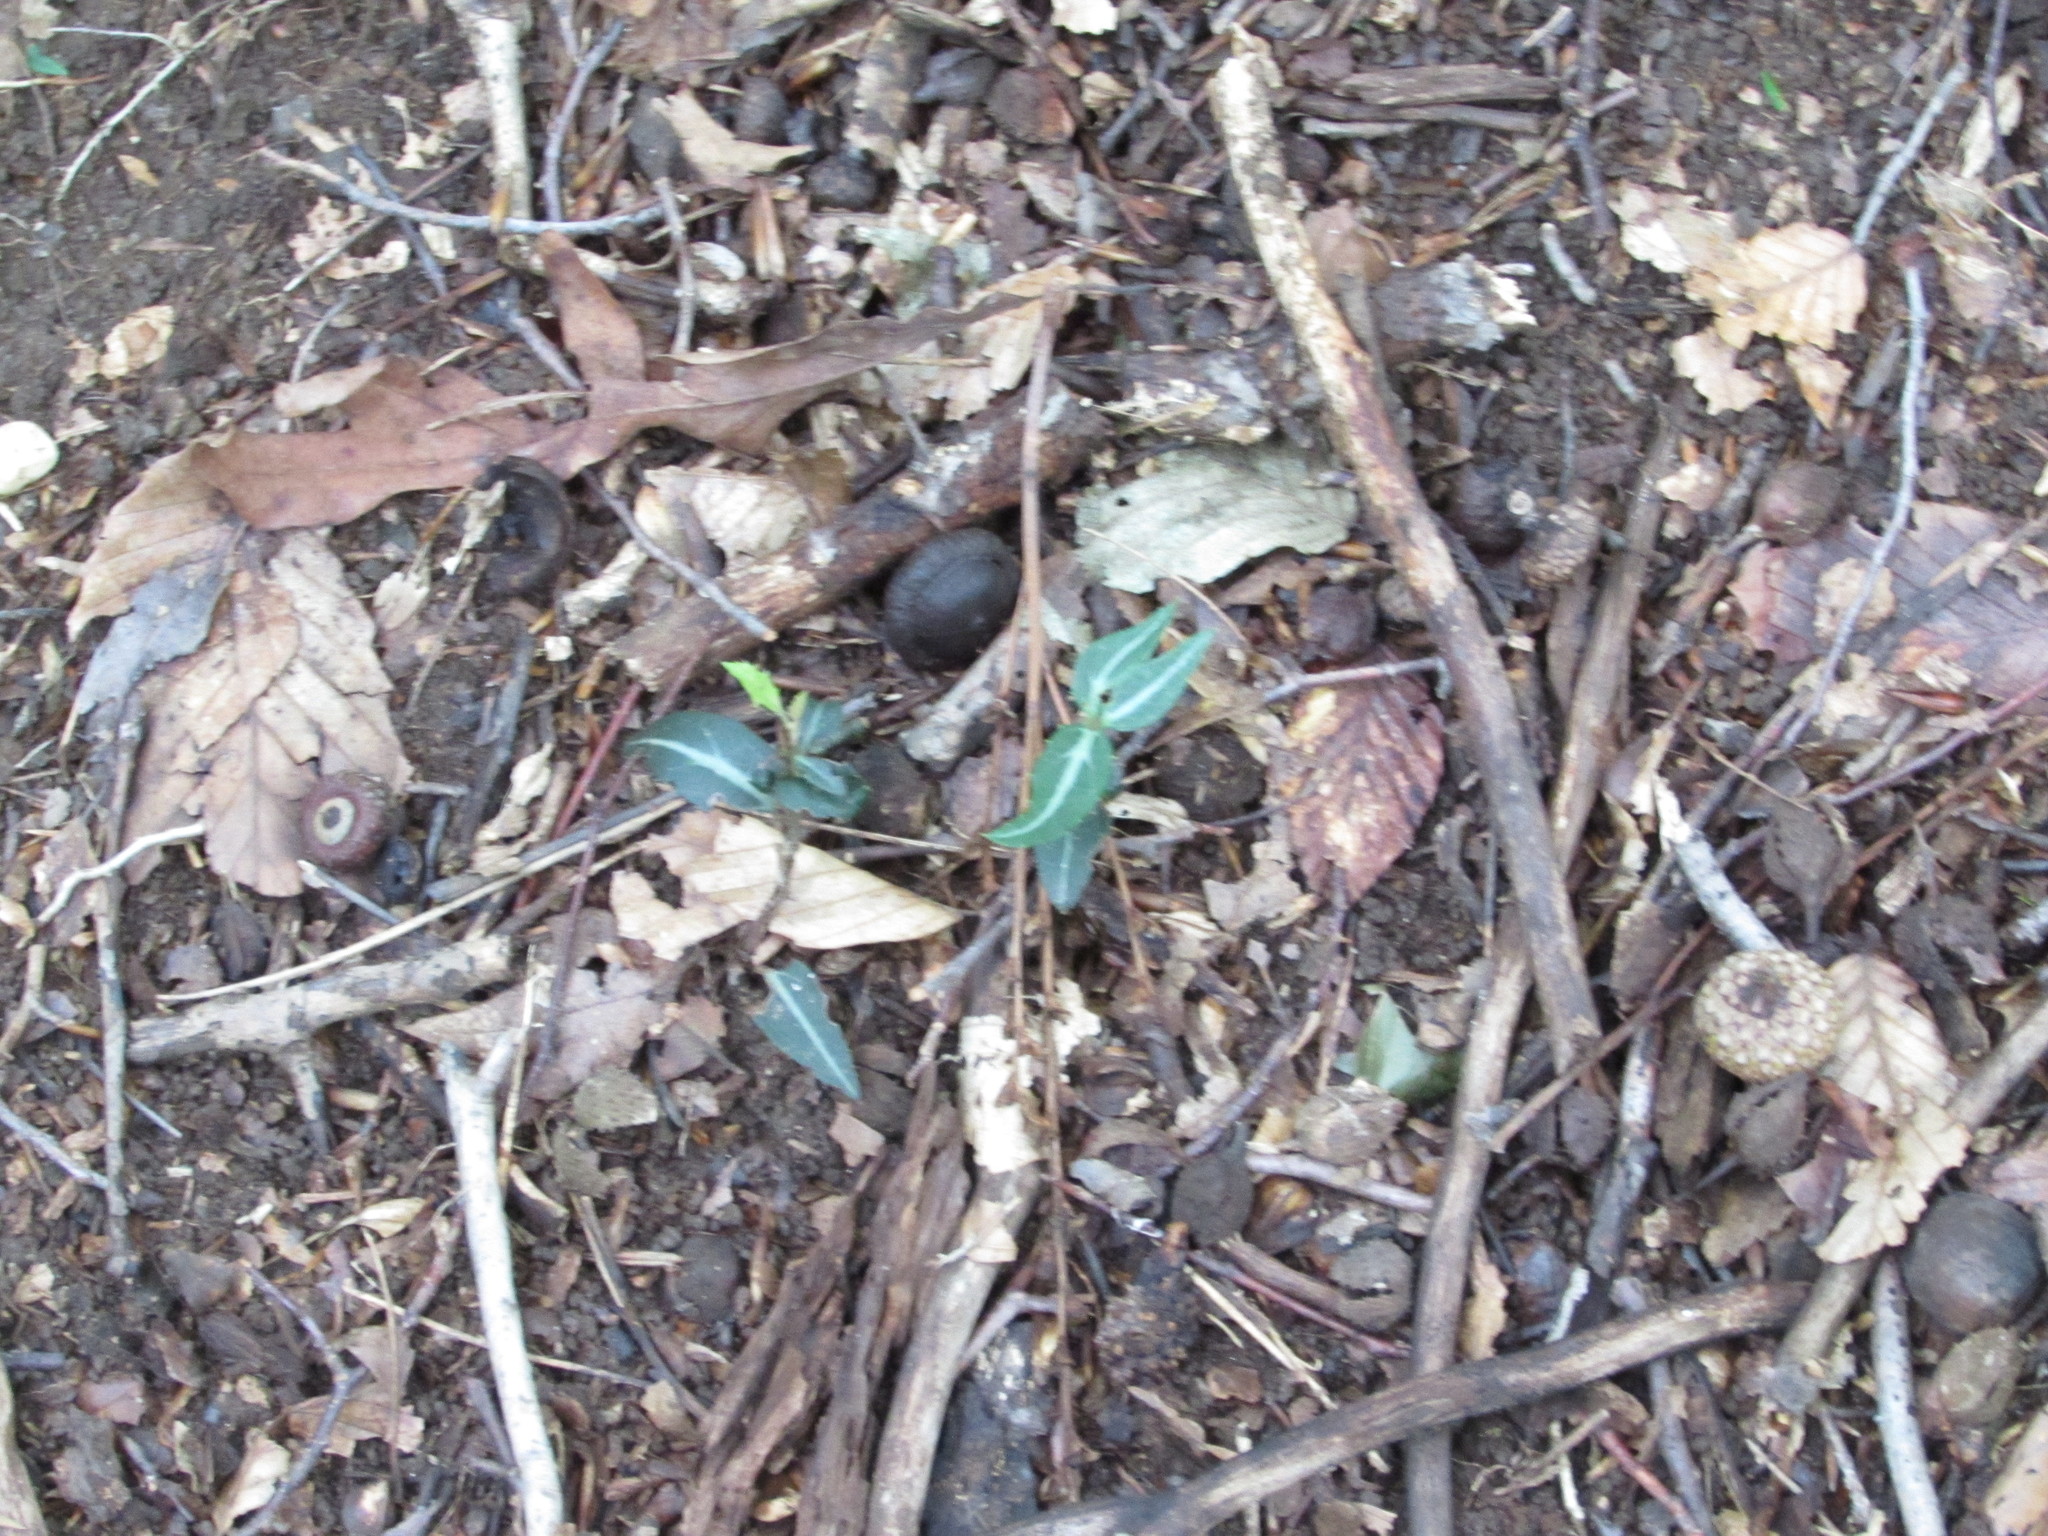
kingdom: Plantae
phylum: Tracheophyta
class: Magnoliopsida
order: Ericales
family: Ericaceae
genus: Chimaphila
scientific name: Chimaphila maculata
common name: Spotted pipsissewa
